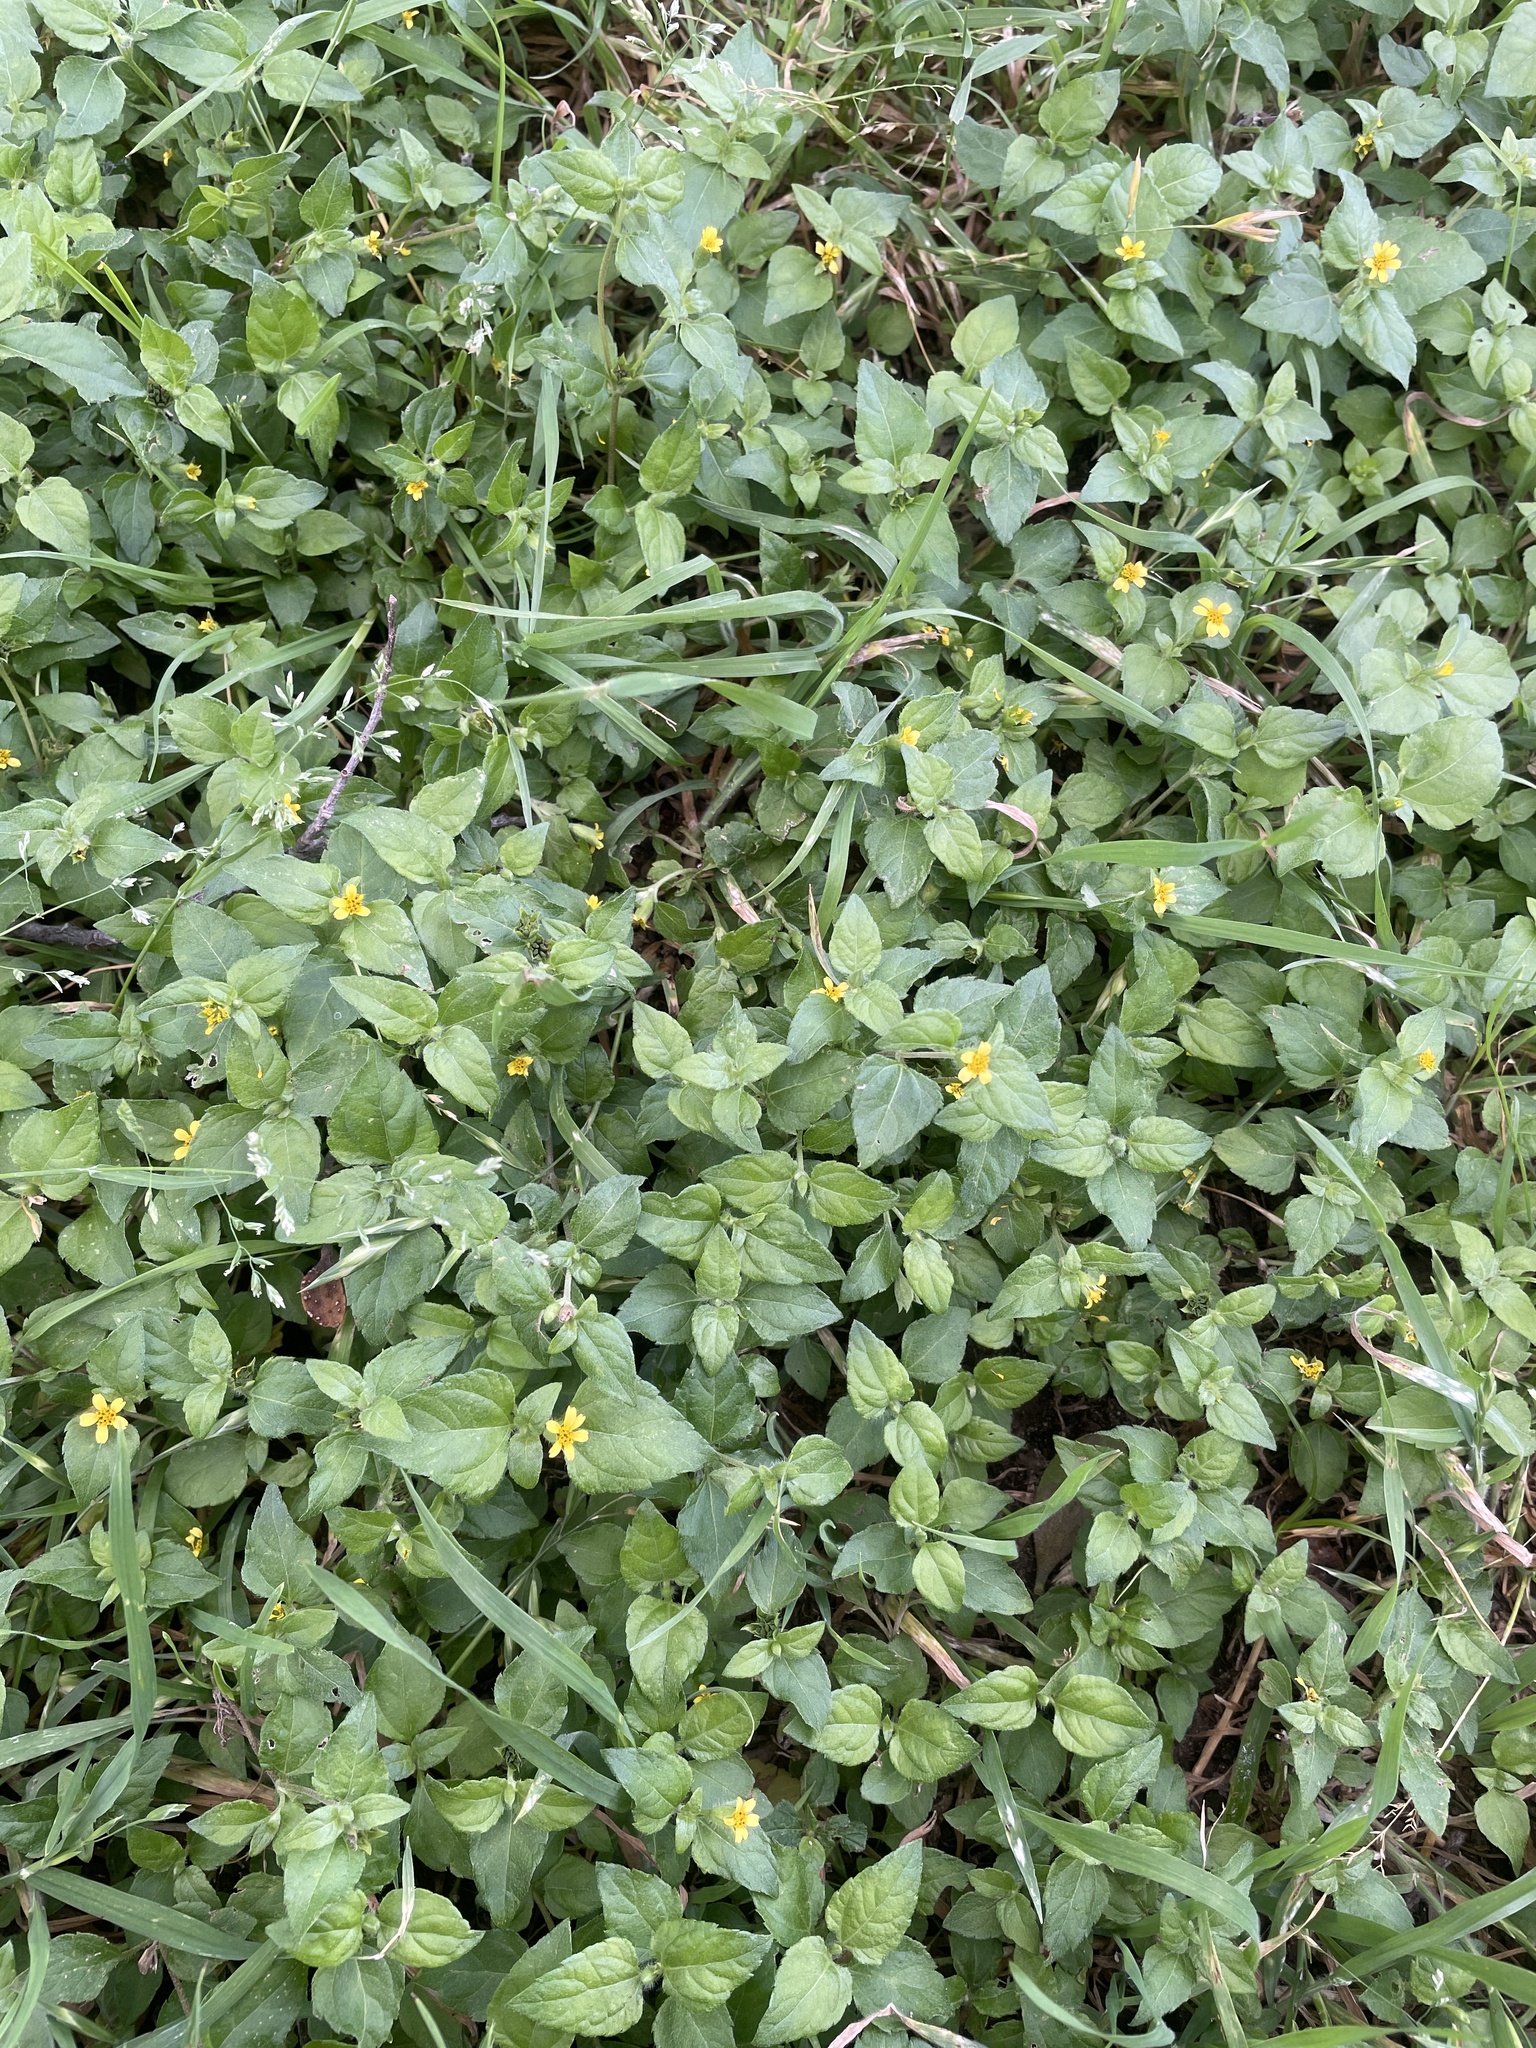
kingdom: Plantae
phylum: Tracheophyta
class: Magnoliopsida
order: Asterales
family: Asteraceae
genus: Calyptocarpus
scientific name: Calyptocarpus vialis
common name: Straggler daisy
